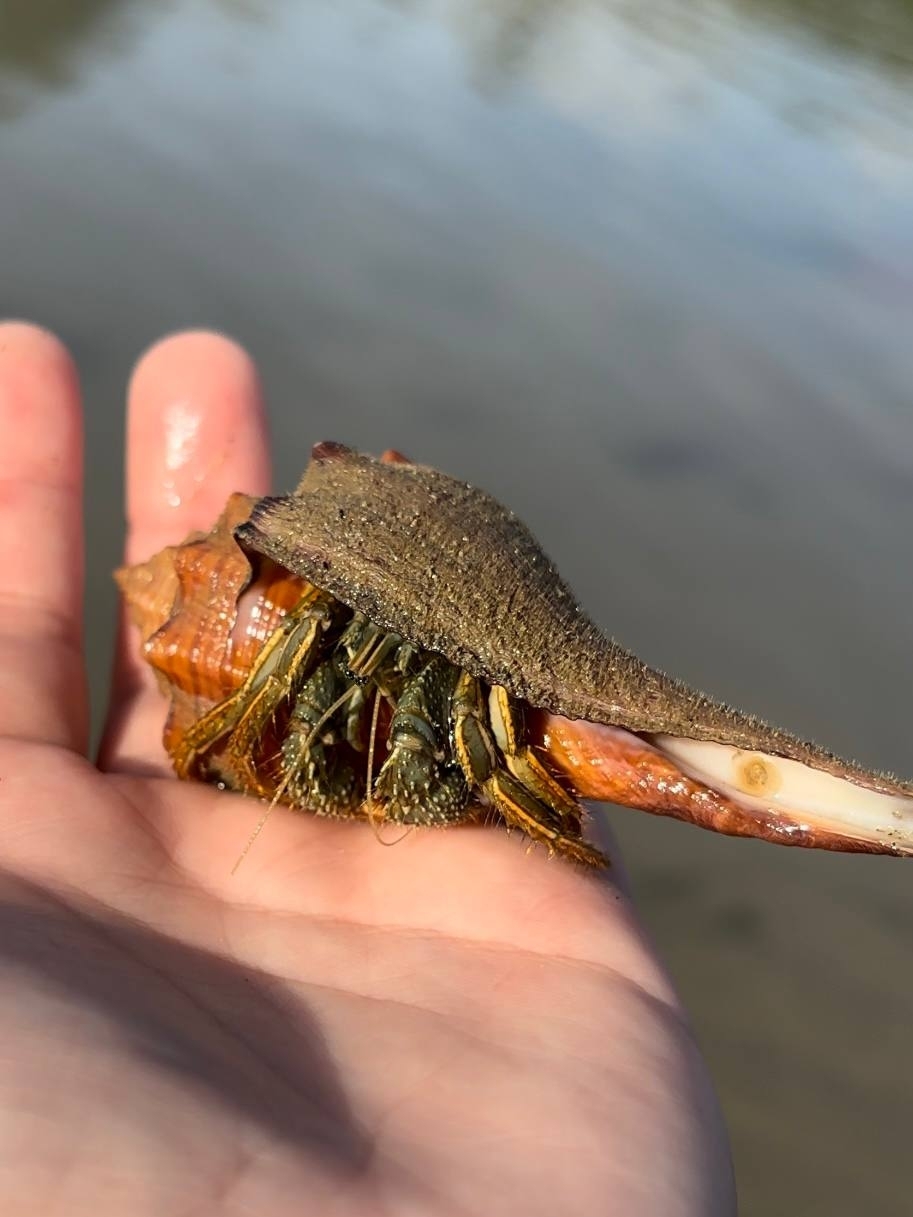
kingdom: Animalia
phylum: Arthropoda
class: Malacostraca
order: Decapoda
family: Diogenidae
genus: Clibanarius
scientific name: Clibanarius infraspinatus
